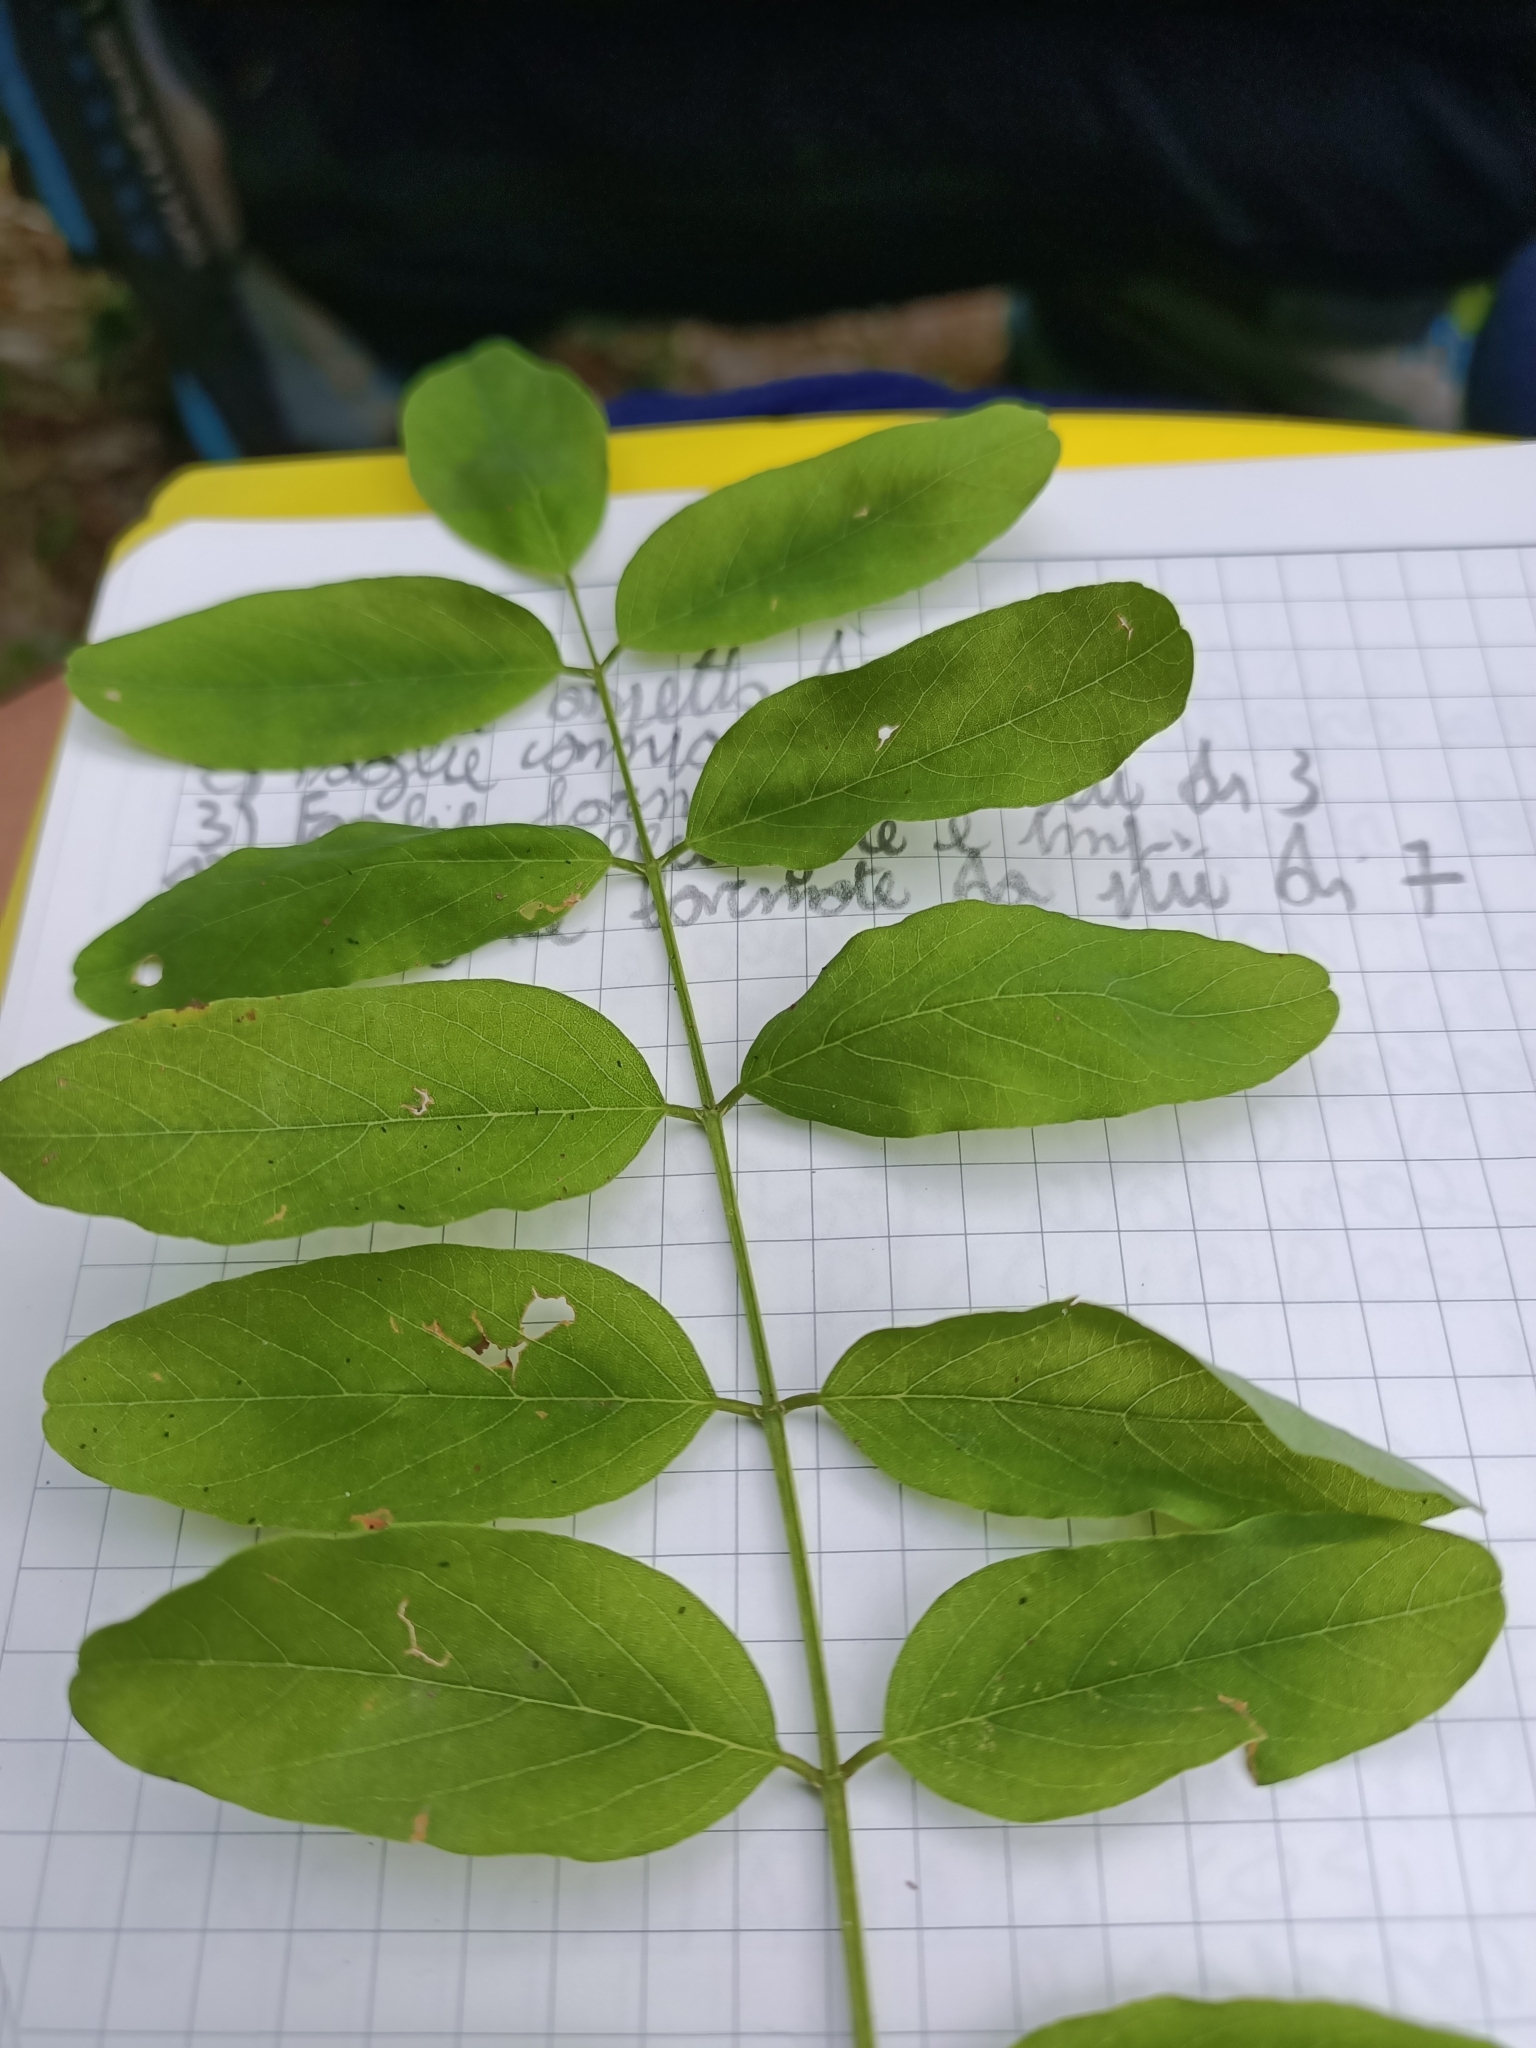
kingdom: Plantae
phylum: Tracheophyta
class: Magnoliopsida
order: Fabales
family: Fabaceae
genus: Robinia
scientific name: Robinia pseudoacacia
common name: Black locust
